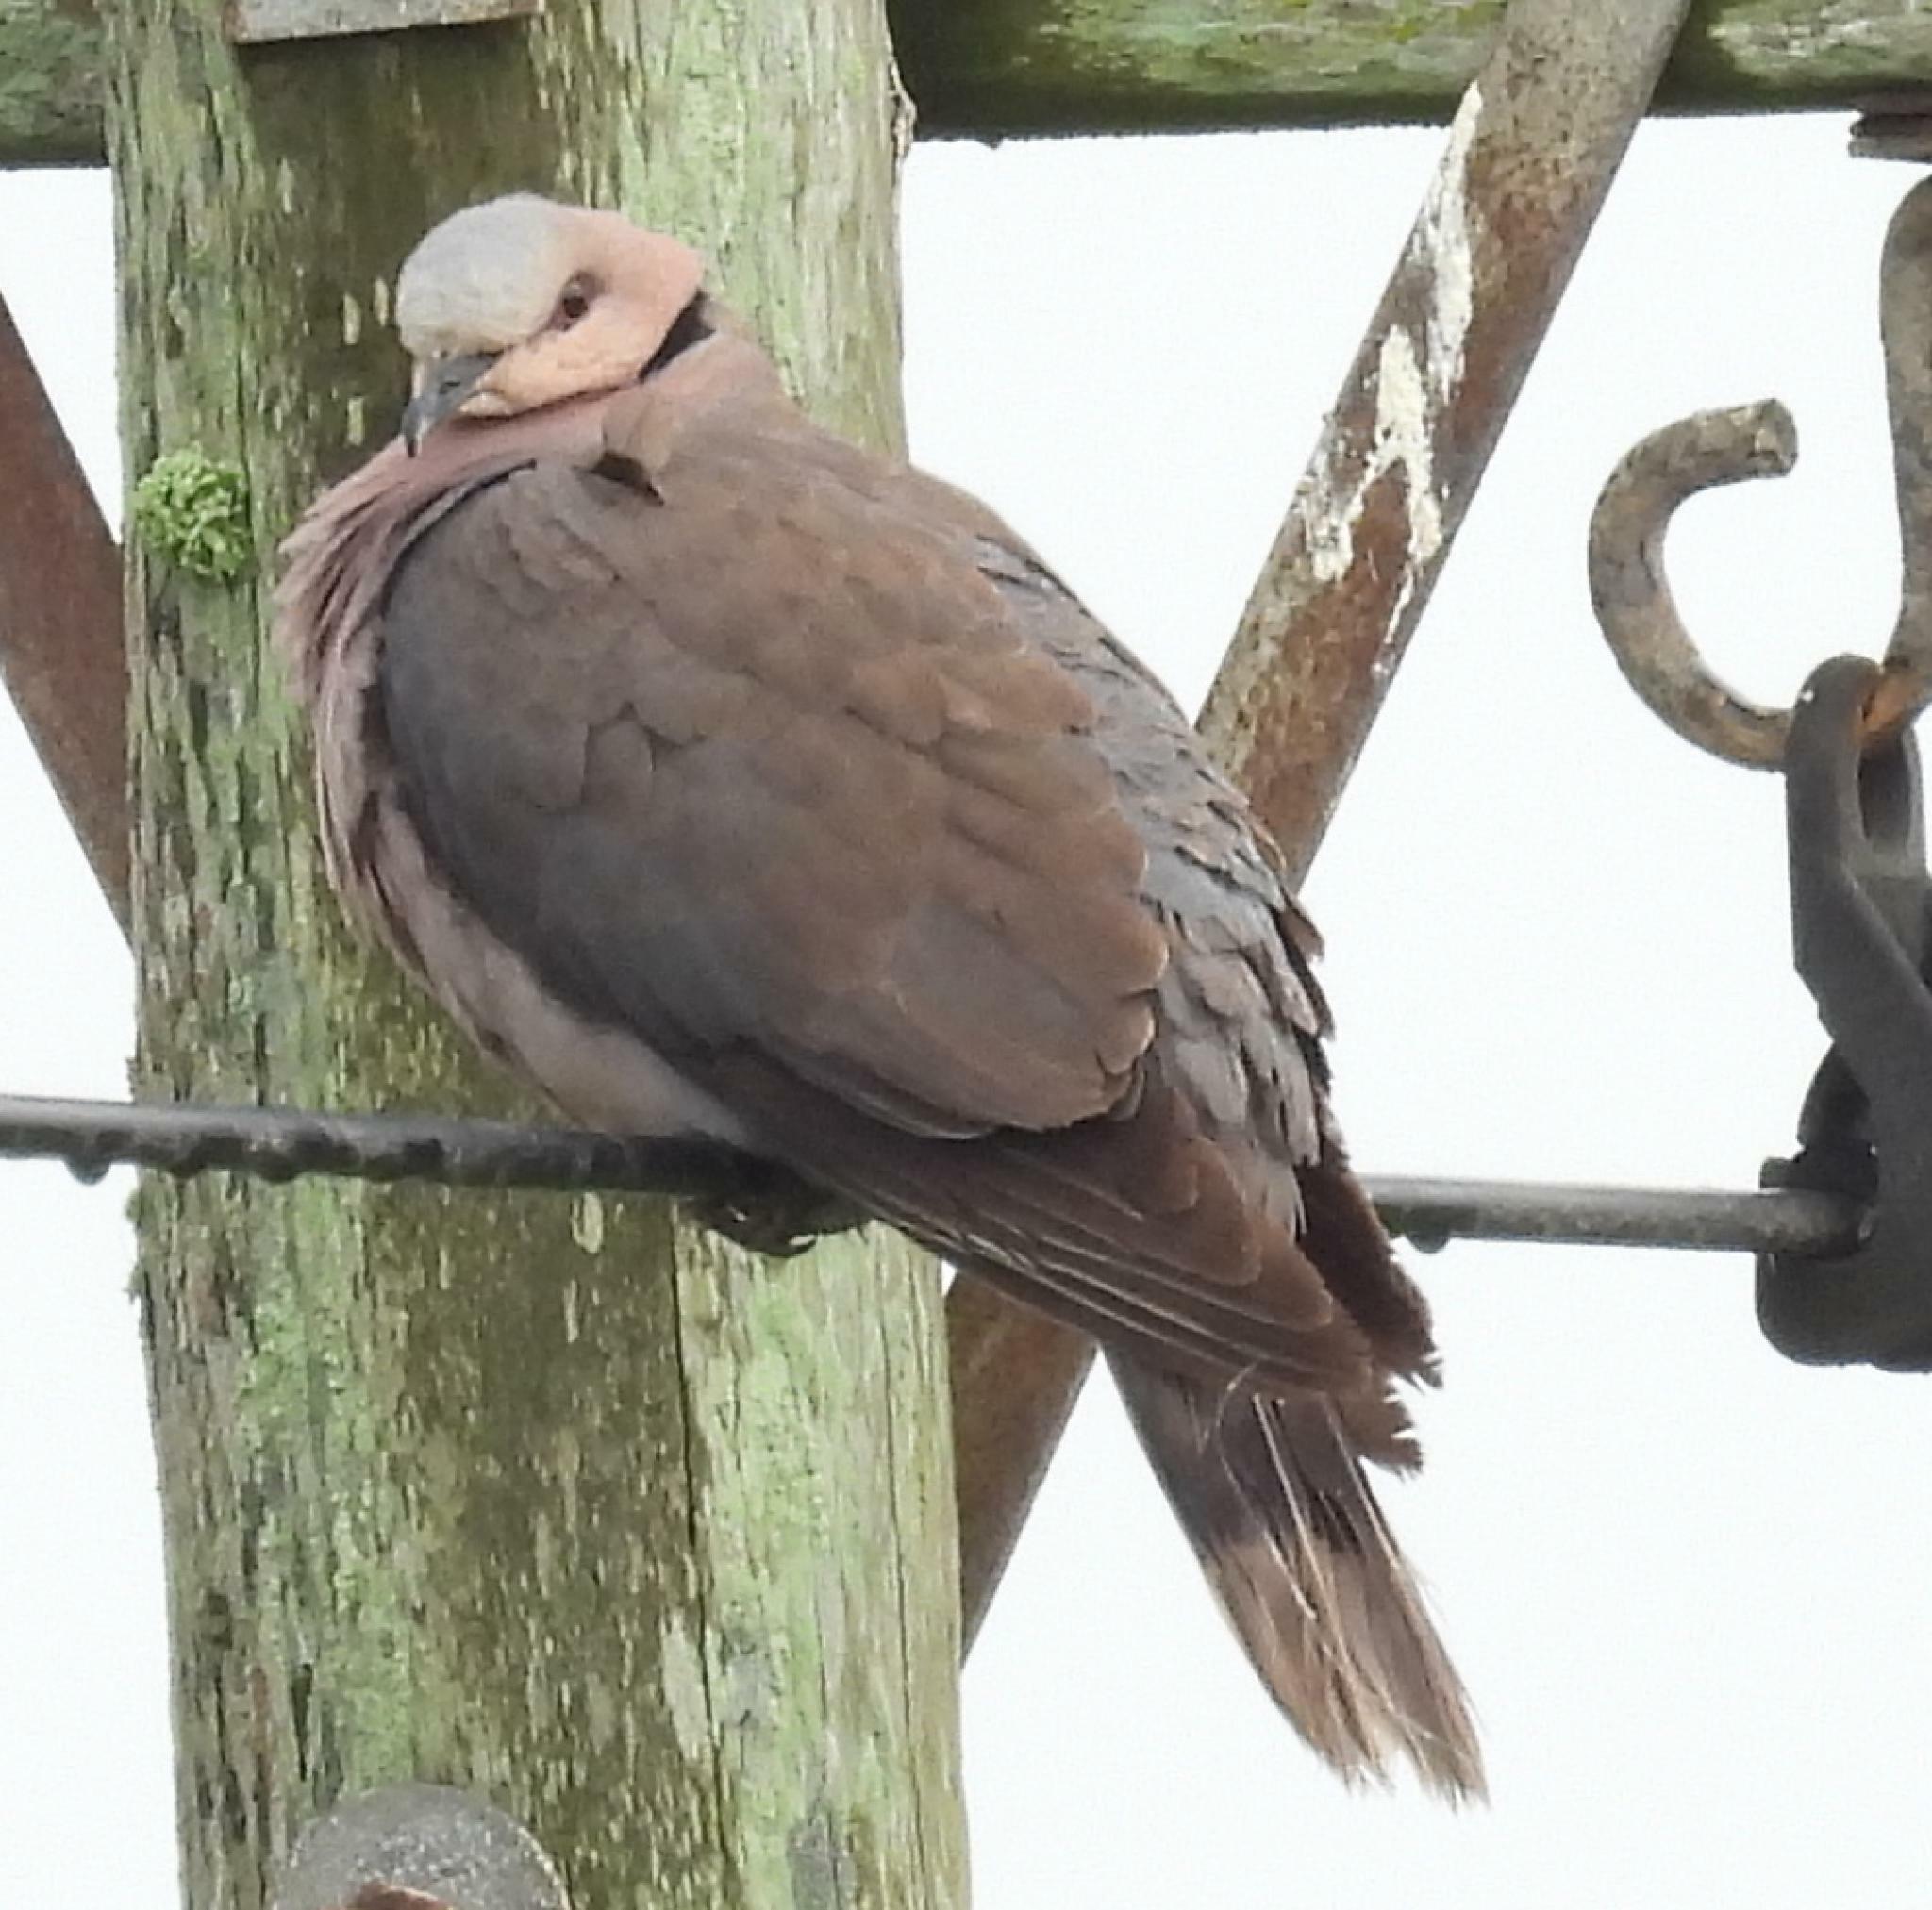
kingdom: Animalia
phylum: Chordata
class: Aves
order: Columbiformes
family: Columbidae
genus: Streptopelia
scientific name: Streptopelia semitorquata
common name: Red-eyed dove
